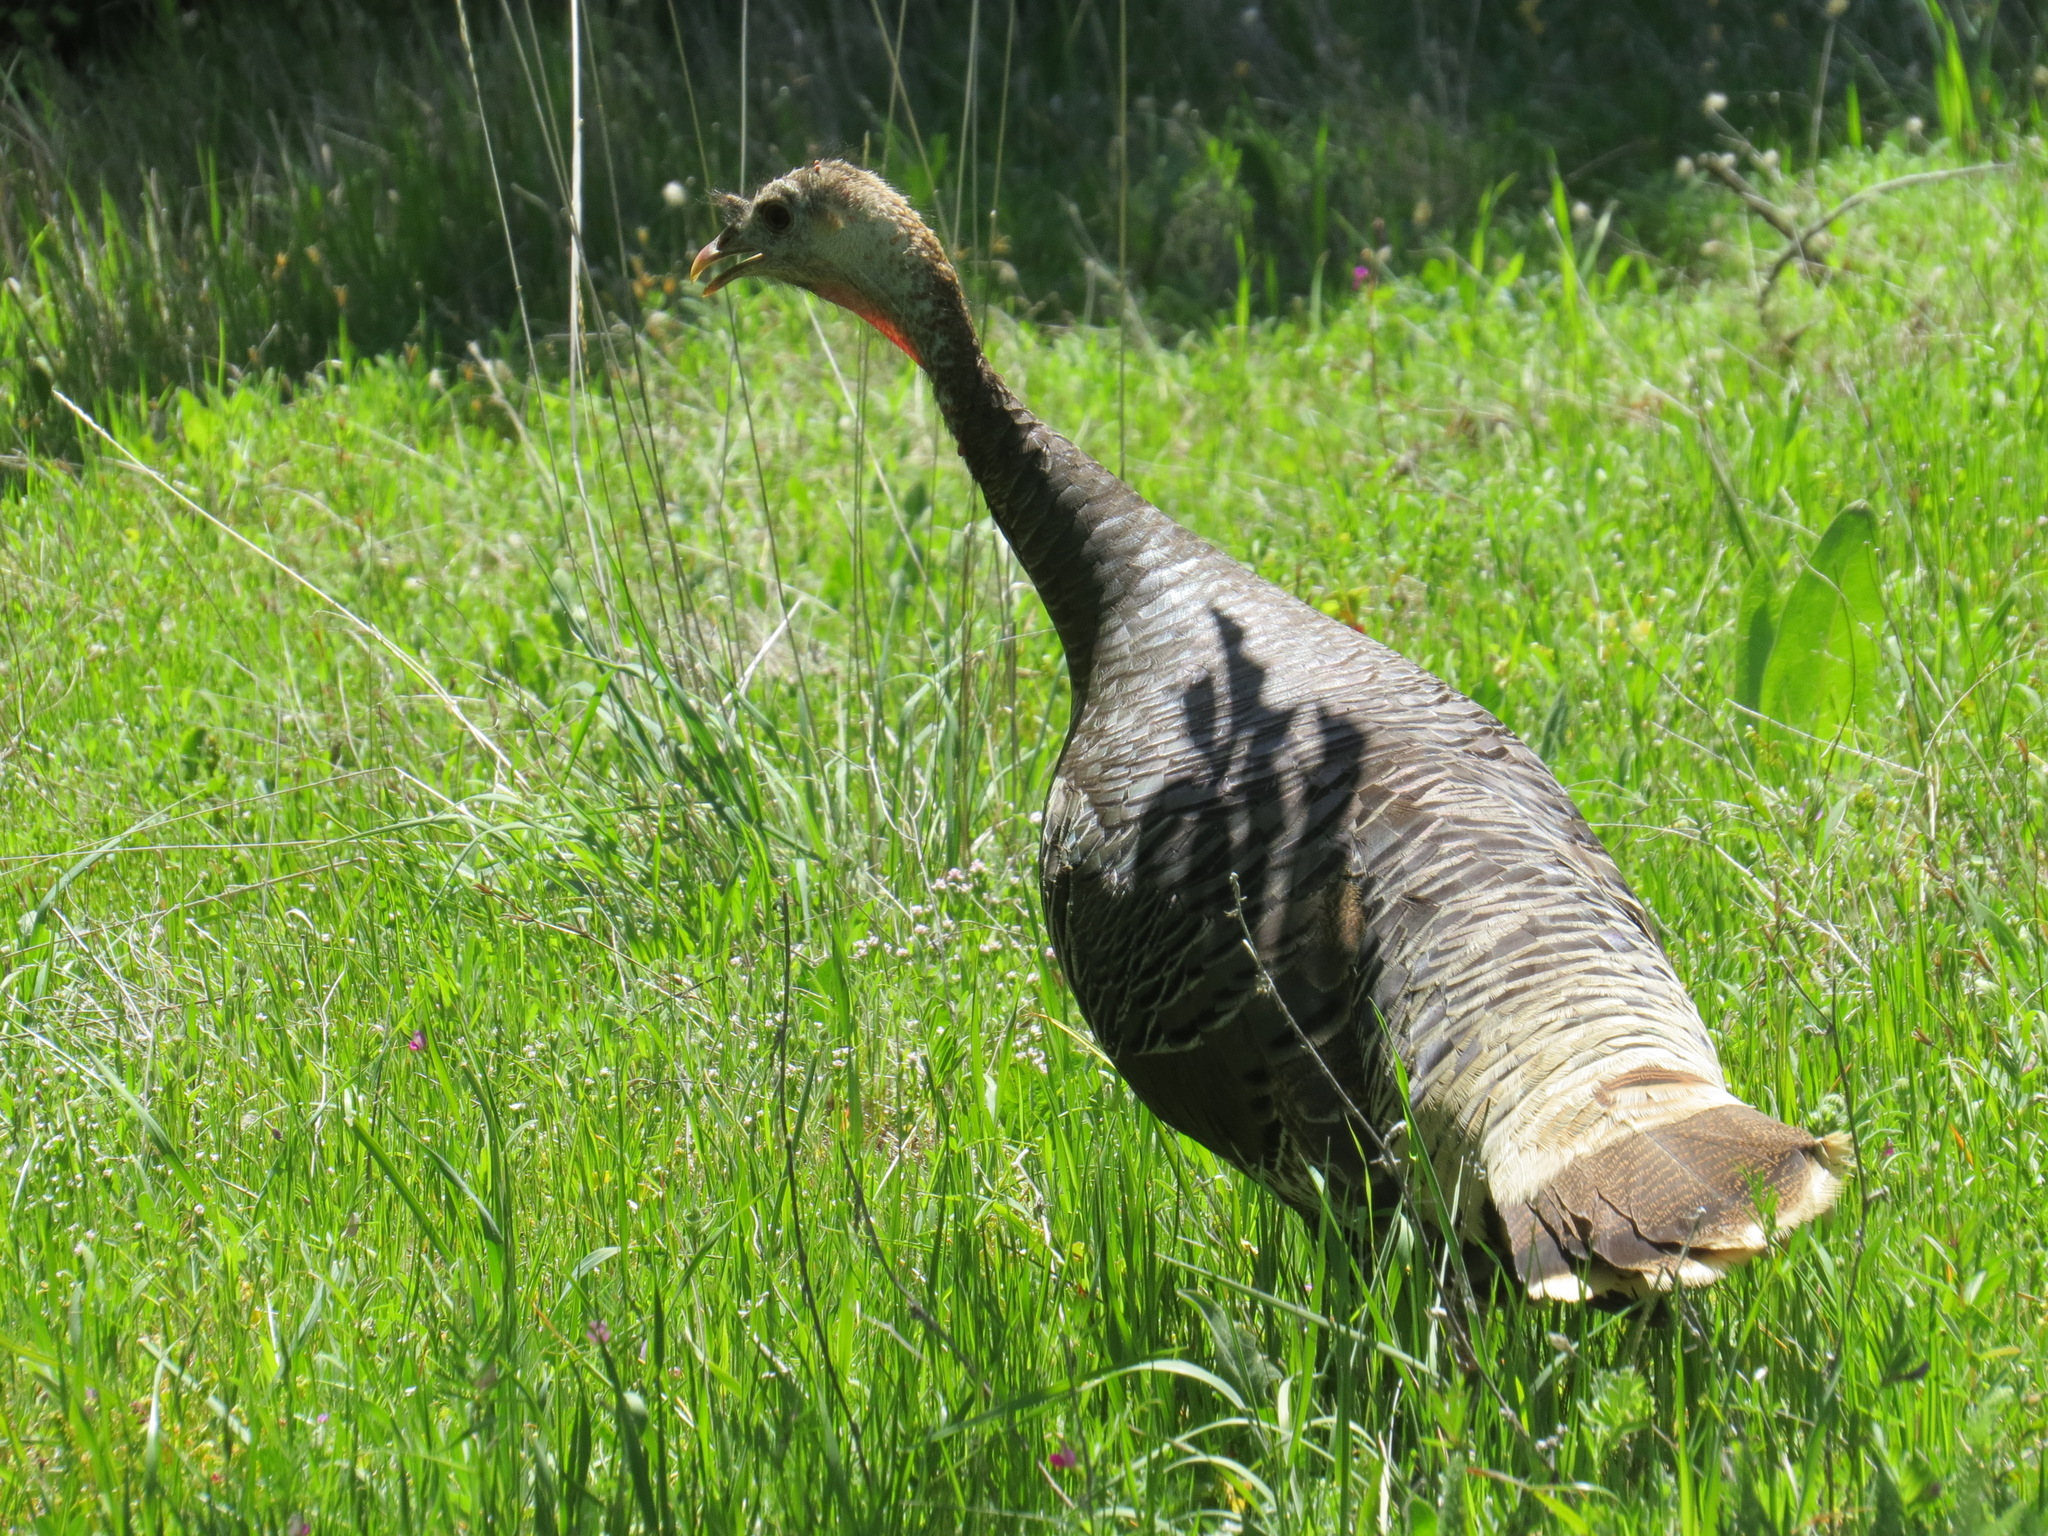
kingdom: Animalia
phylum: Chordata
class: Aves
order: Galliformes
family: Phasianidae
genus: Meleagris
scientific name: Meleagris gallopavo
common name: Wild turkey
